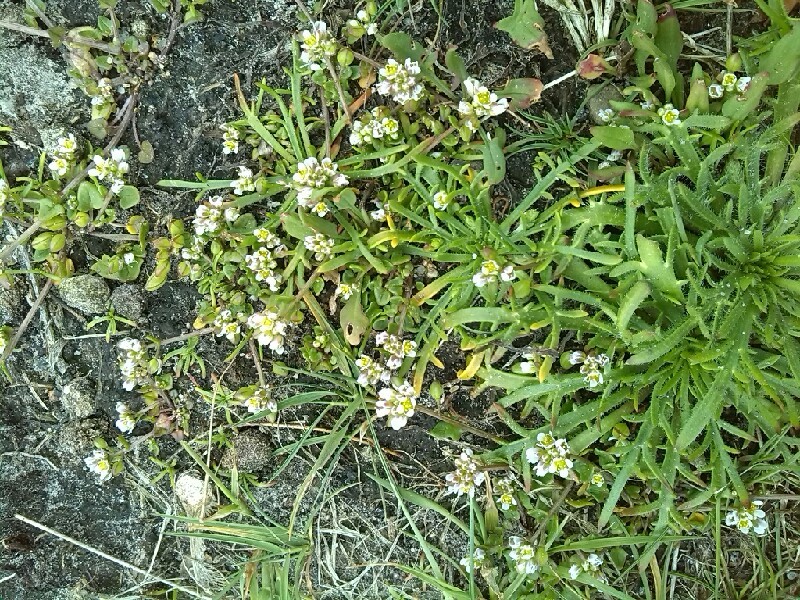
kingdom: Plantae
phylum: Tracheophyta
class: Magnoliopsida
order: Lamiales
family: Plantaginaceae
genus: Plantago
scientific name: Plantago coronopus
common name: Buck's-horn plantain
